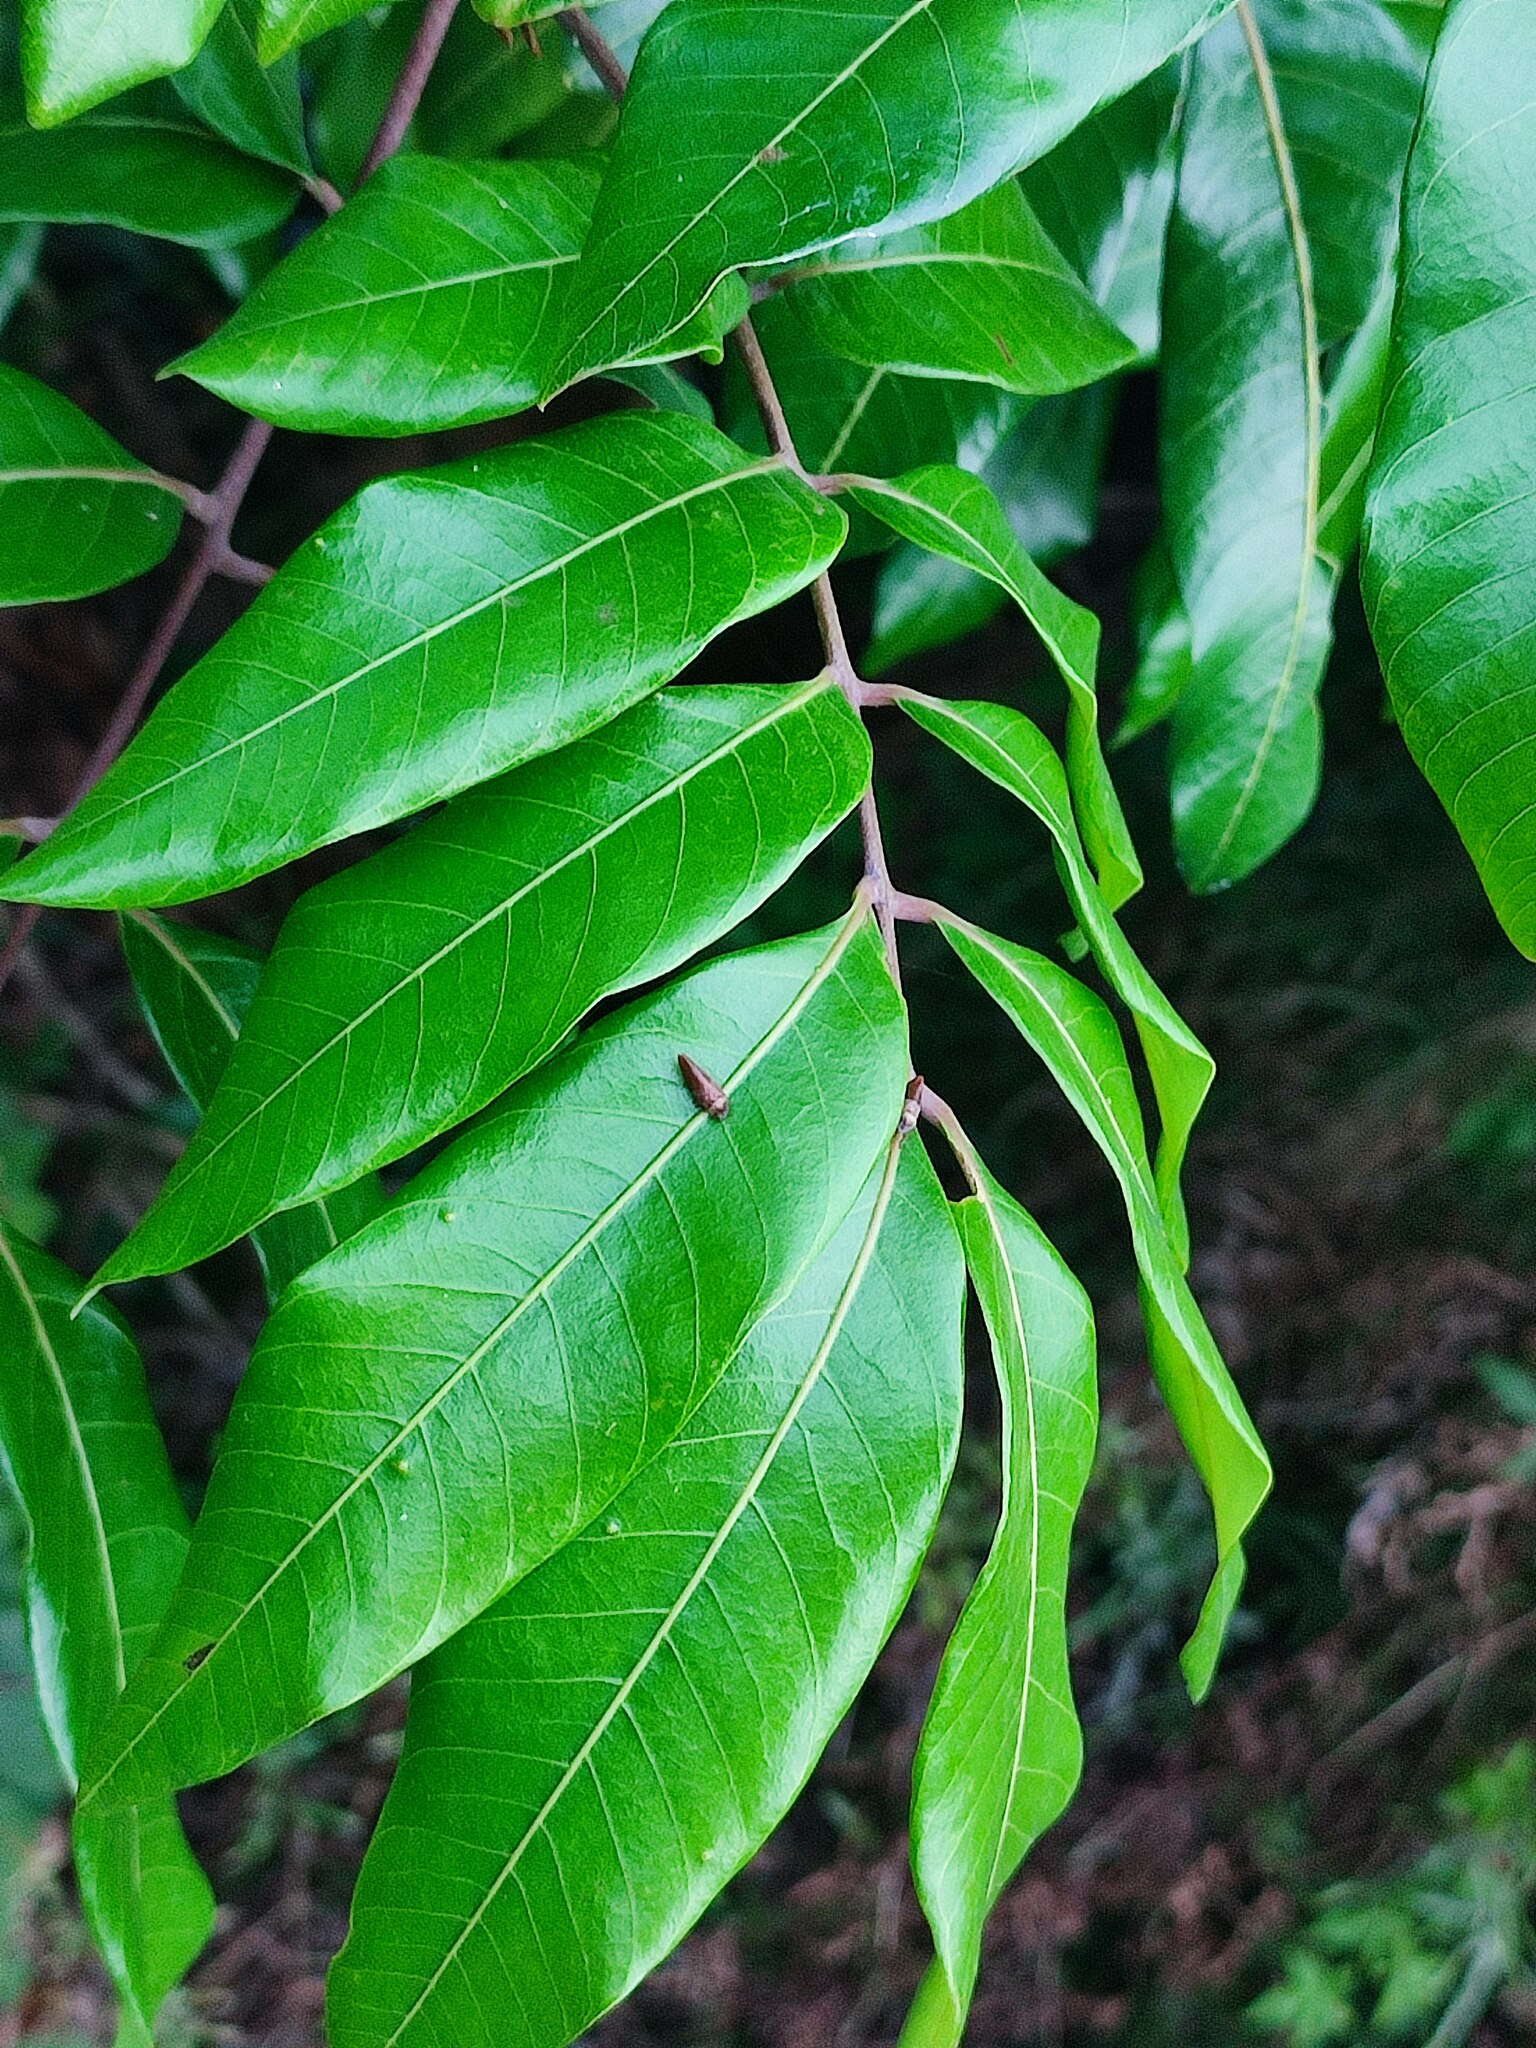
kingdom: Plantae
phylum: Tracheophyta
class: Magnoliopsida
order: Sapindales
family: Sapindaceae
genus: Dimocarpus
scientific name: Dimocarpus longan
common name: Longan
